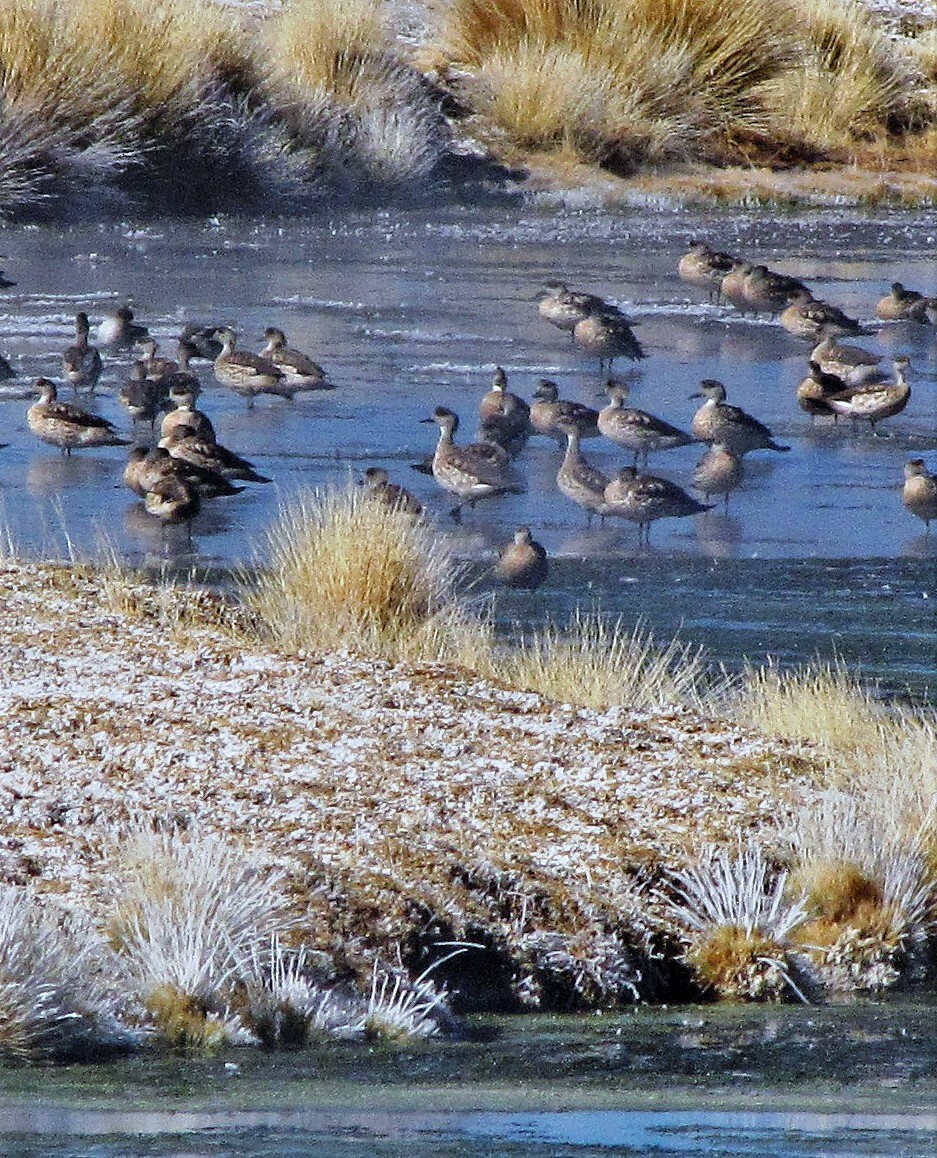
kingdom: Animalia
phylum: Chordata
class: Aves
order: Anseriformes
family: Anatidae
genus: Lophonetta
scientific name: Lophonetta specularioides
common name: Crested duck
